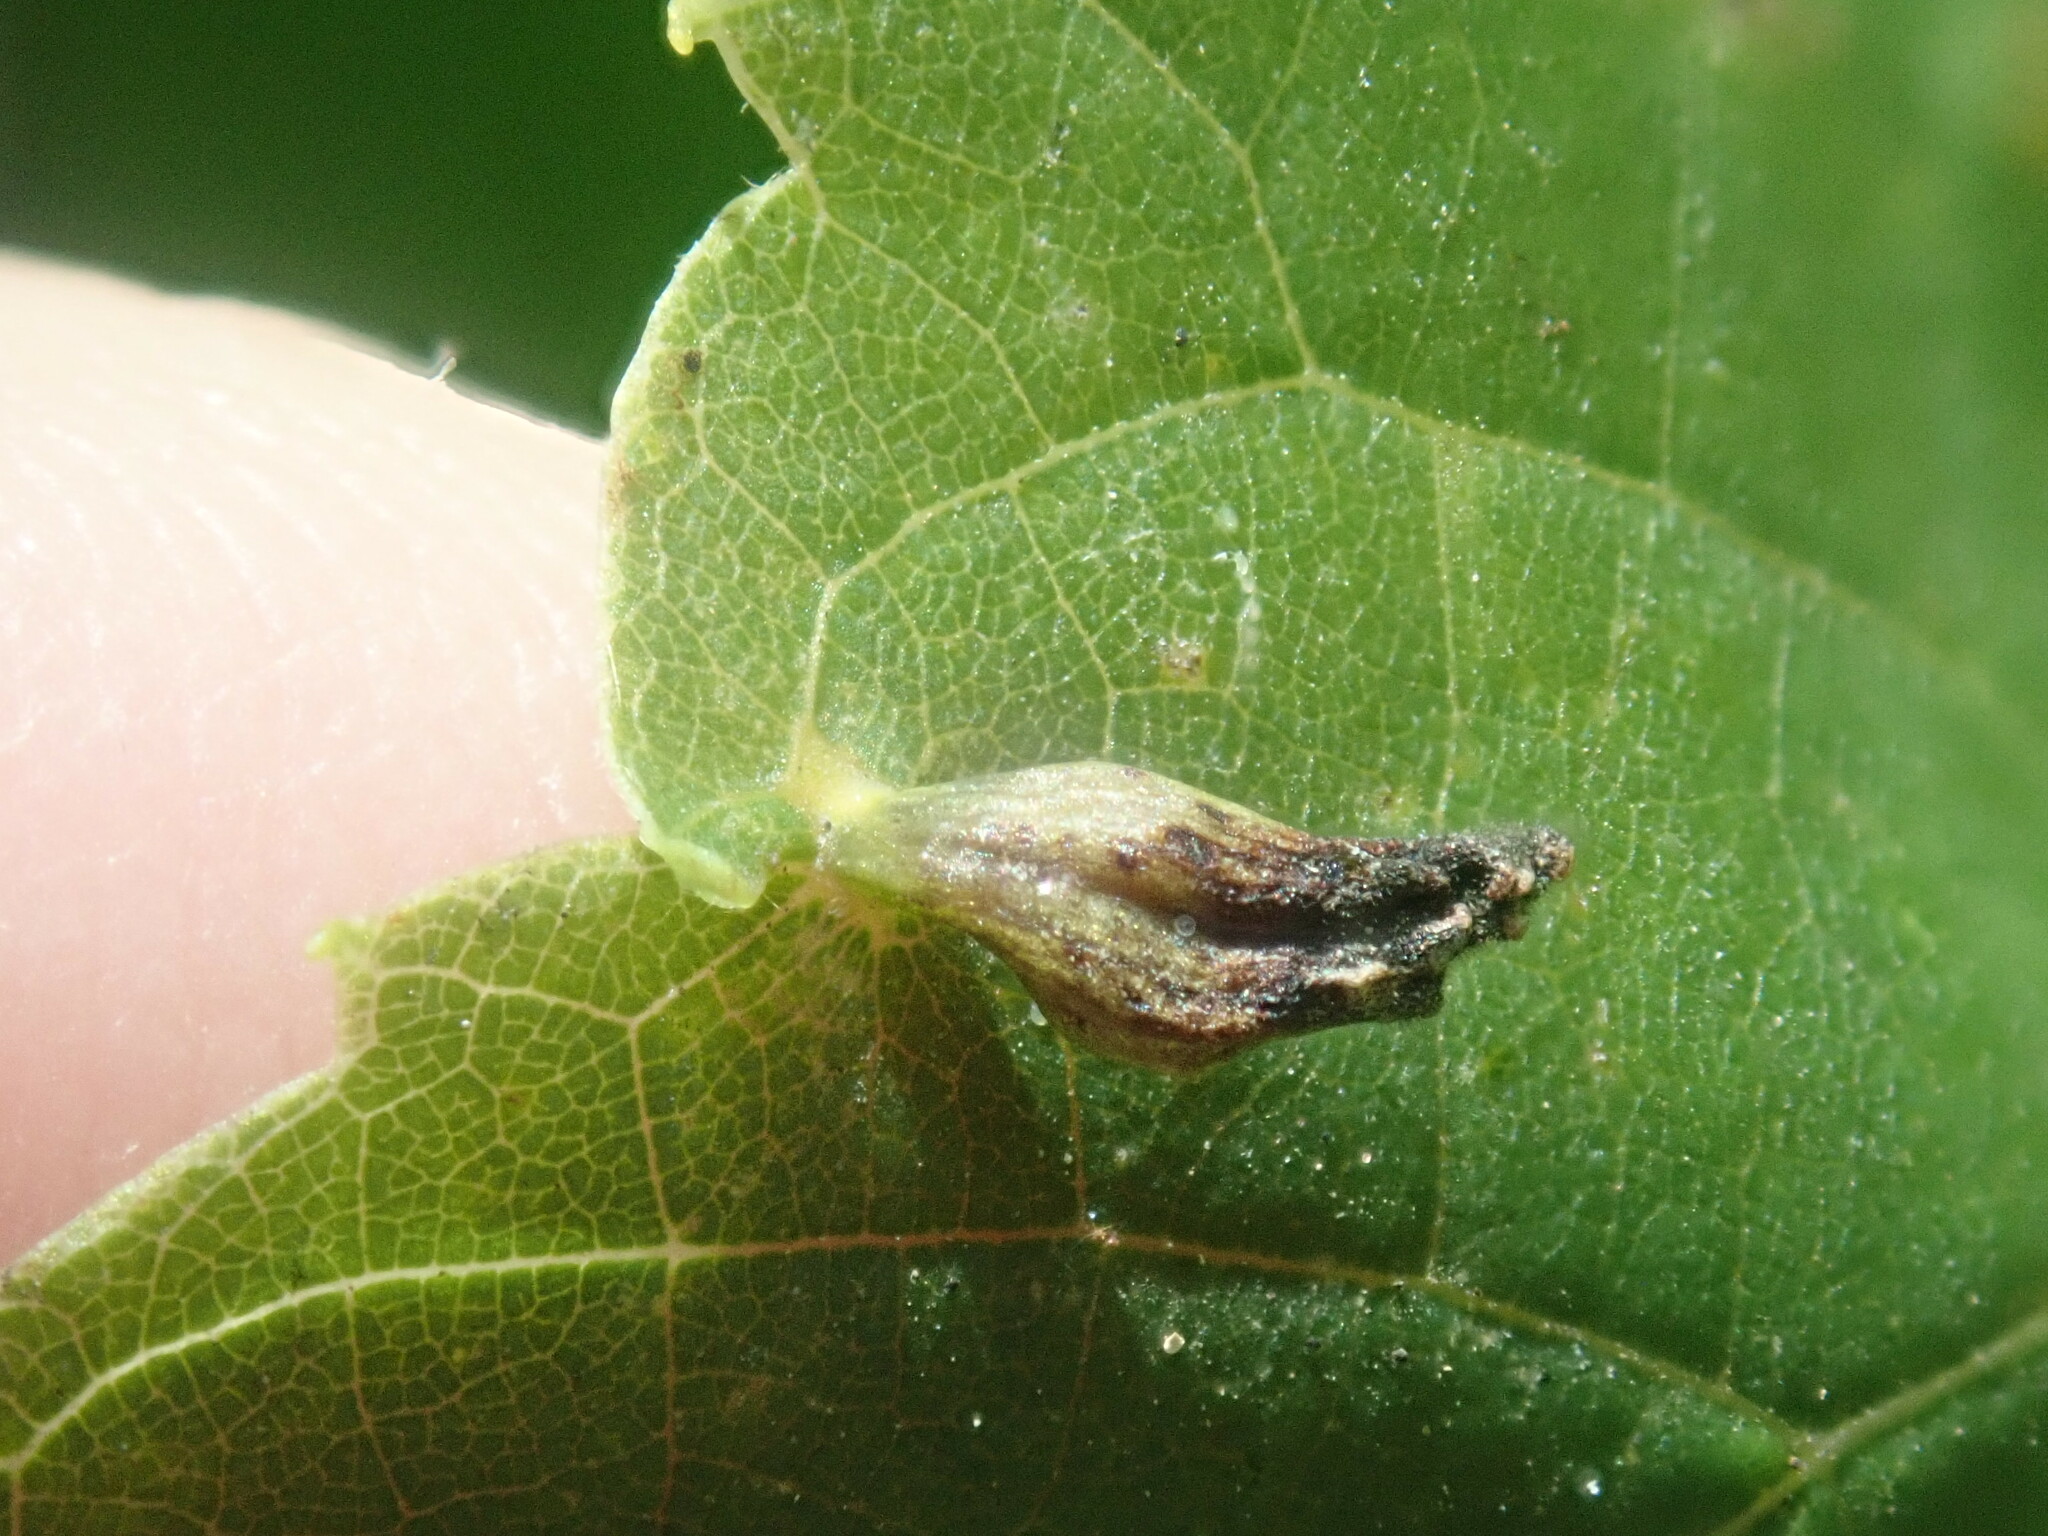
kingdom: Animalia
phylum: Arthropoda
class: Arachnida
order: Trombidiformes
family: Eriophyidae
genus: Eriophyes
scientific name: Eriophyes tiliae
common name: Red nail gall mite
